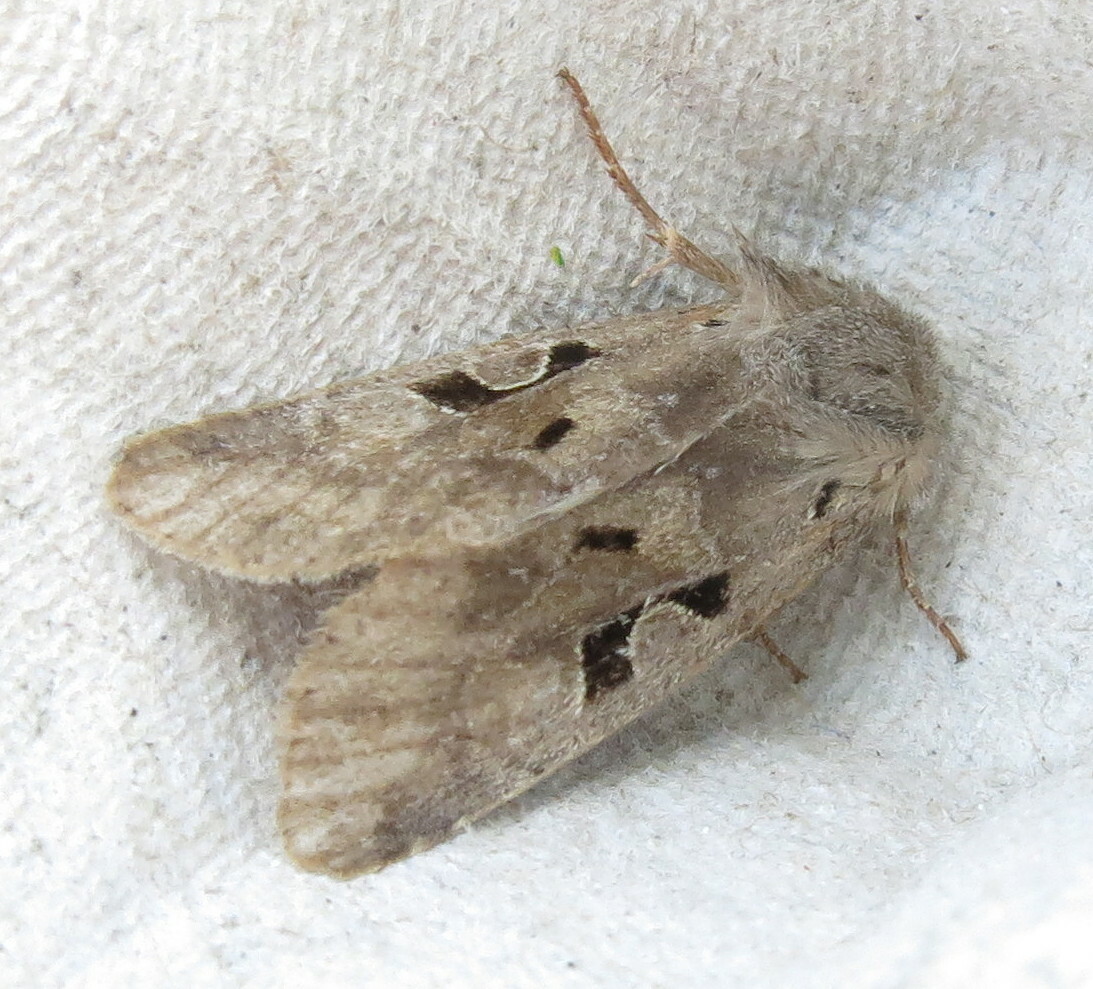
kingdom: Animalia
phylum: Arthropoda
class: Insecta
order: Lepidoptera
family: Noctuidae
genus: Orthosia
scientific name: Orthosia gothica
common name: Hebrew character
